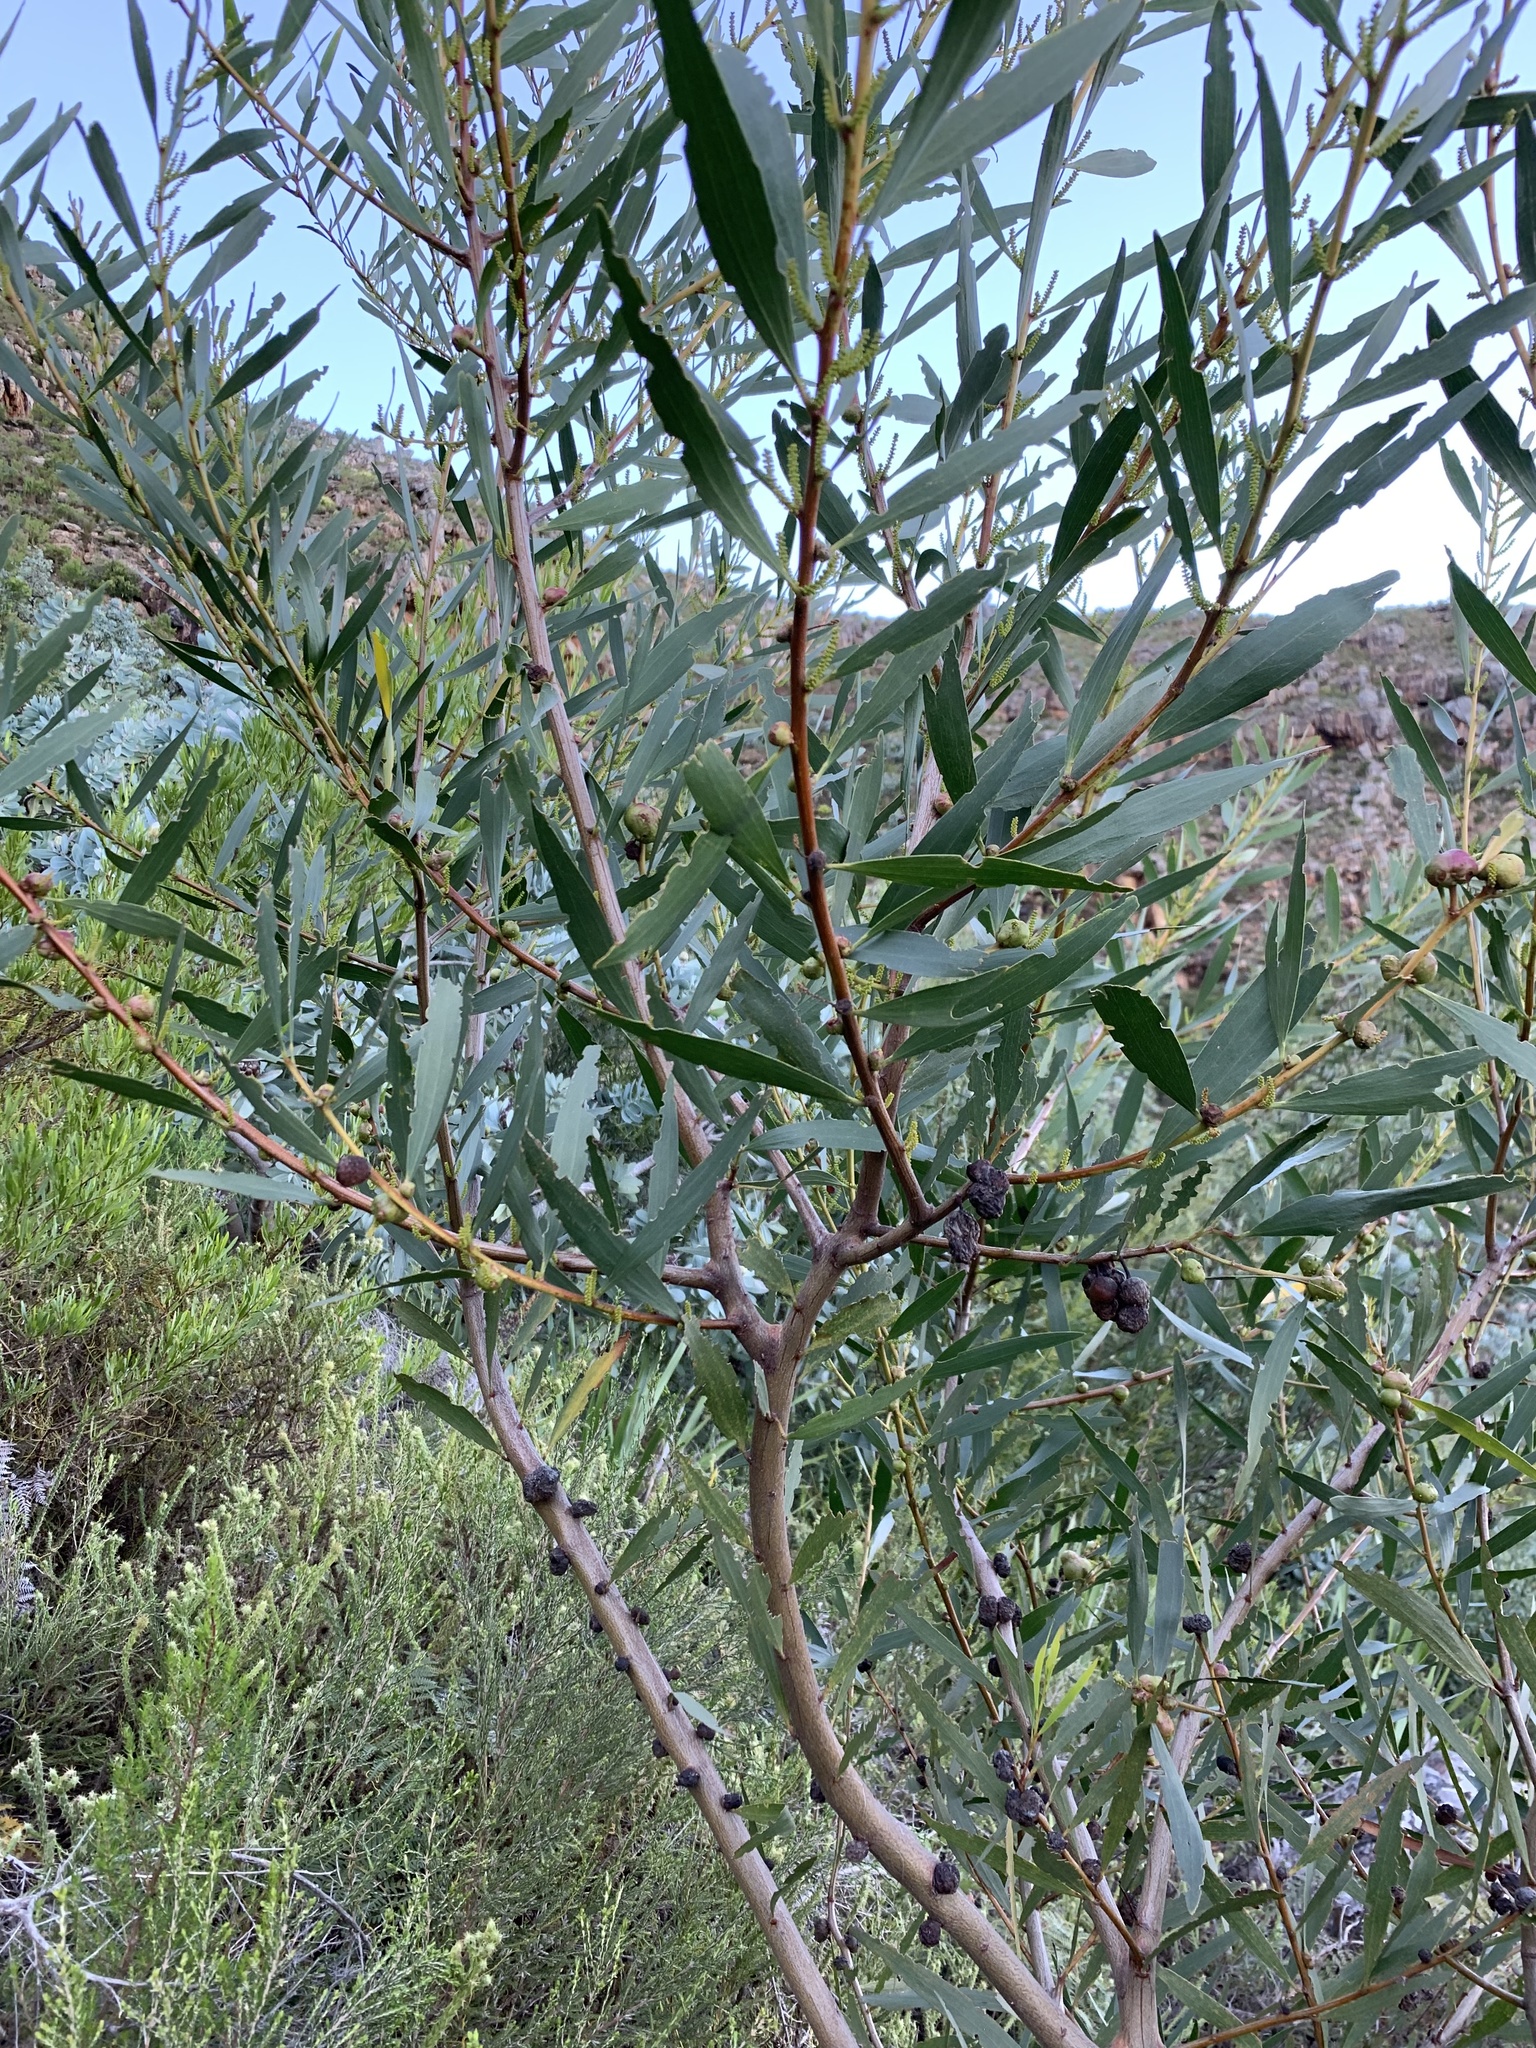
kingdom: Plantae
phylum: Tracheophyta
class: Magnoliopsida
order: Fabales
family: Fabaceae
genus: Acacia
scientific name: Acacia longifolia
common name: Sydney golden wattle
